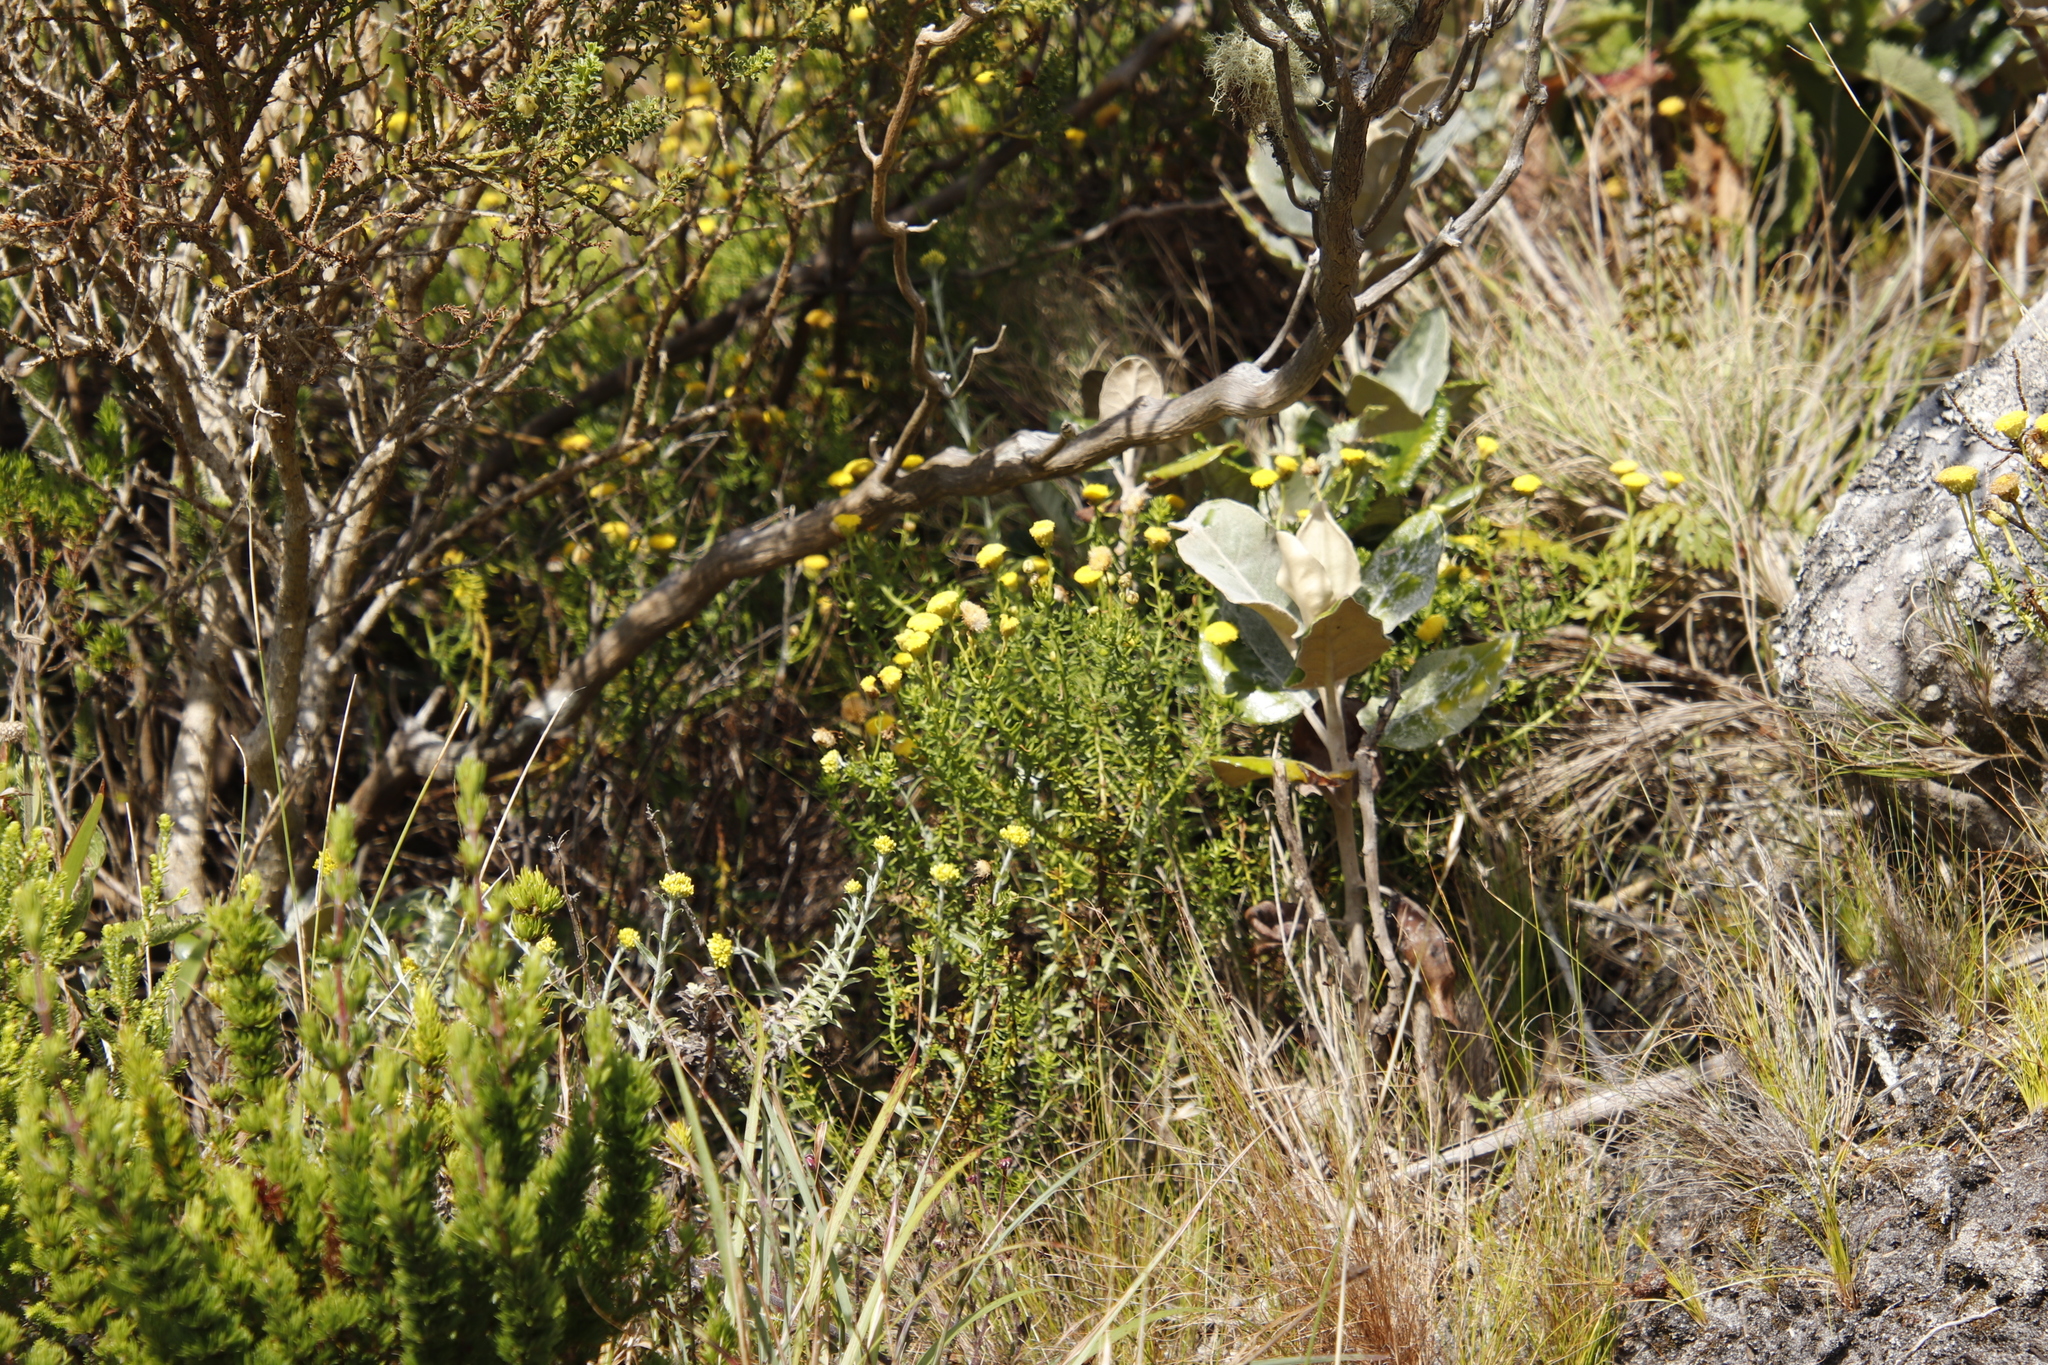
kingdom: Plantae
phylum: Tracheophyta
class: Magnoliopsida
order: Asterales
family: Asteraceae
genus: Chrysocoma
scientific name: Chrysocoma cernua
